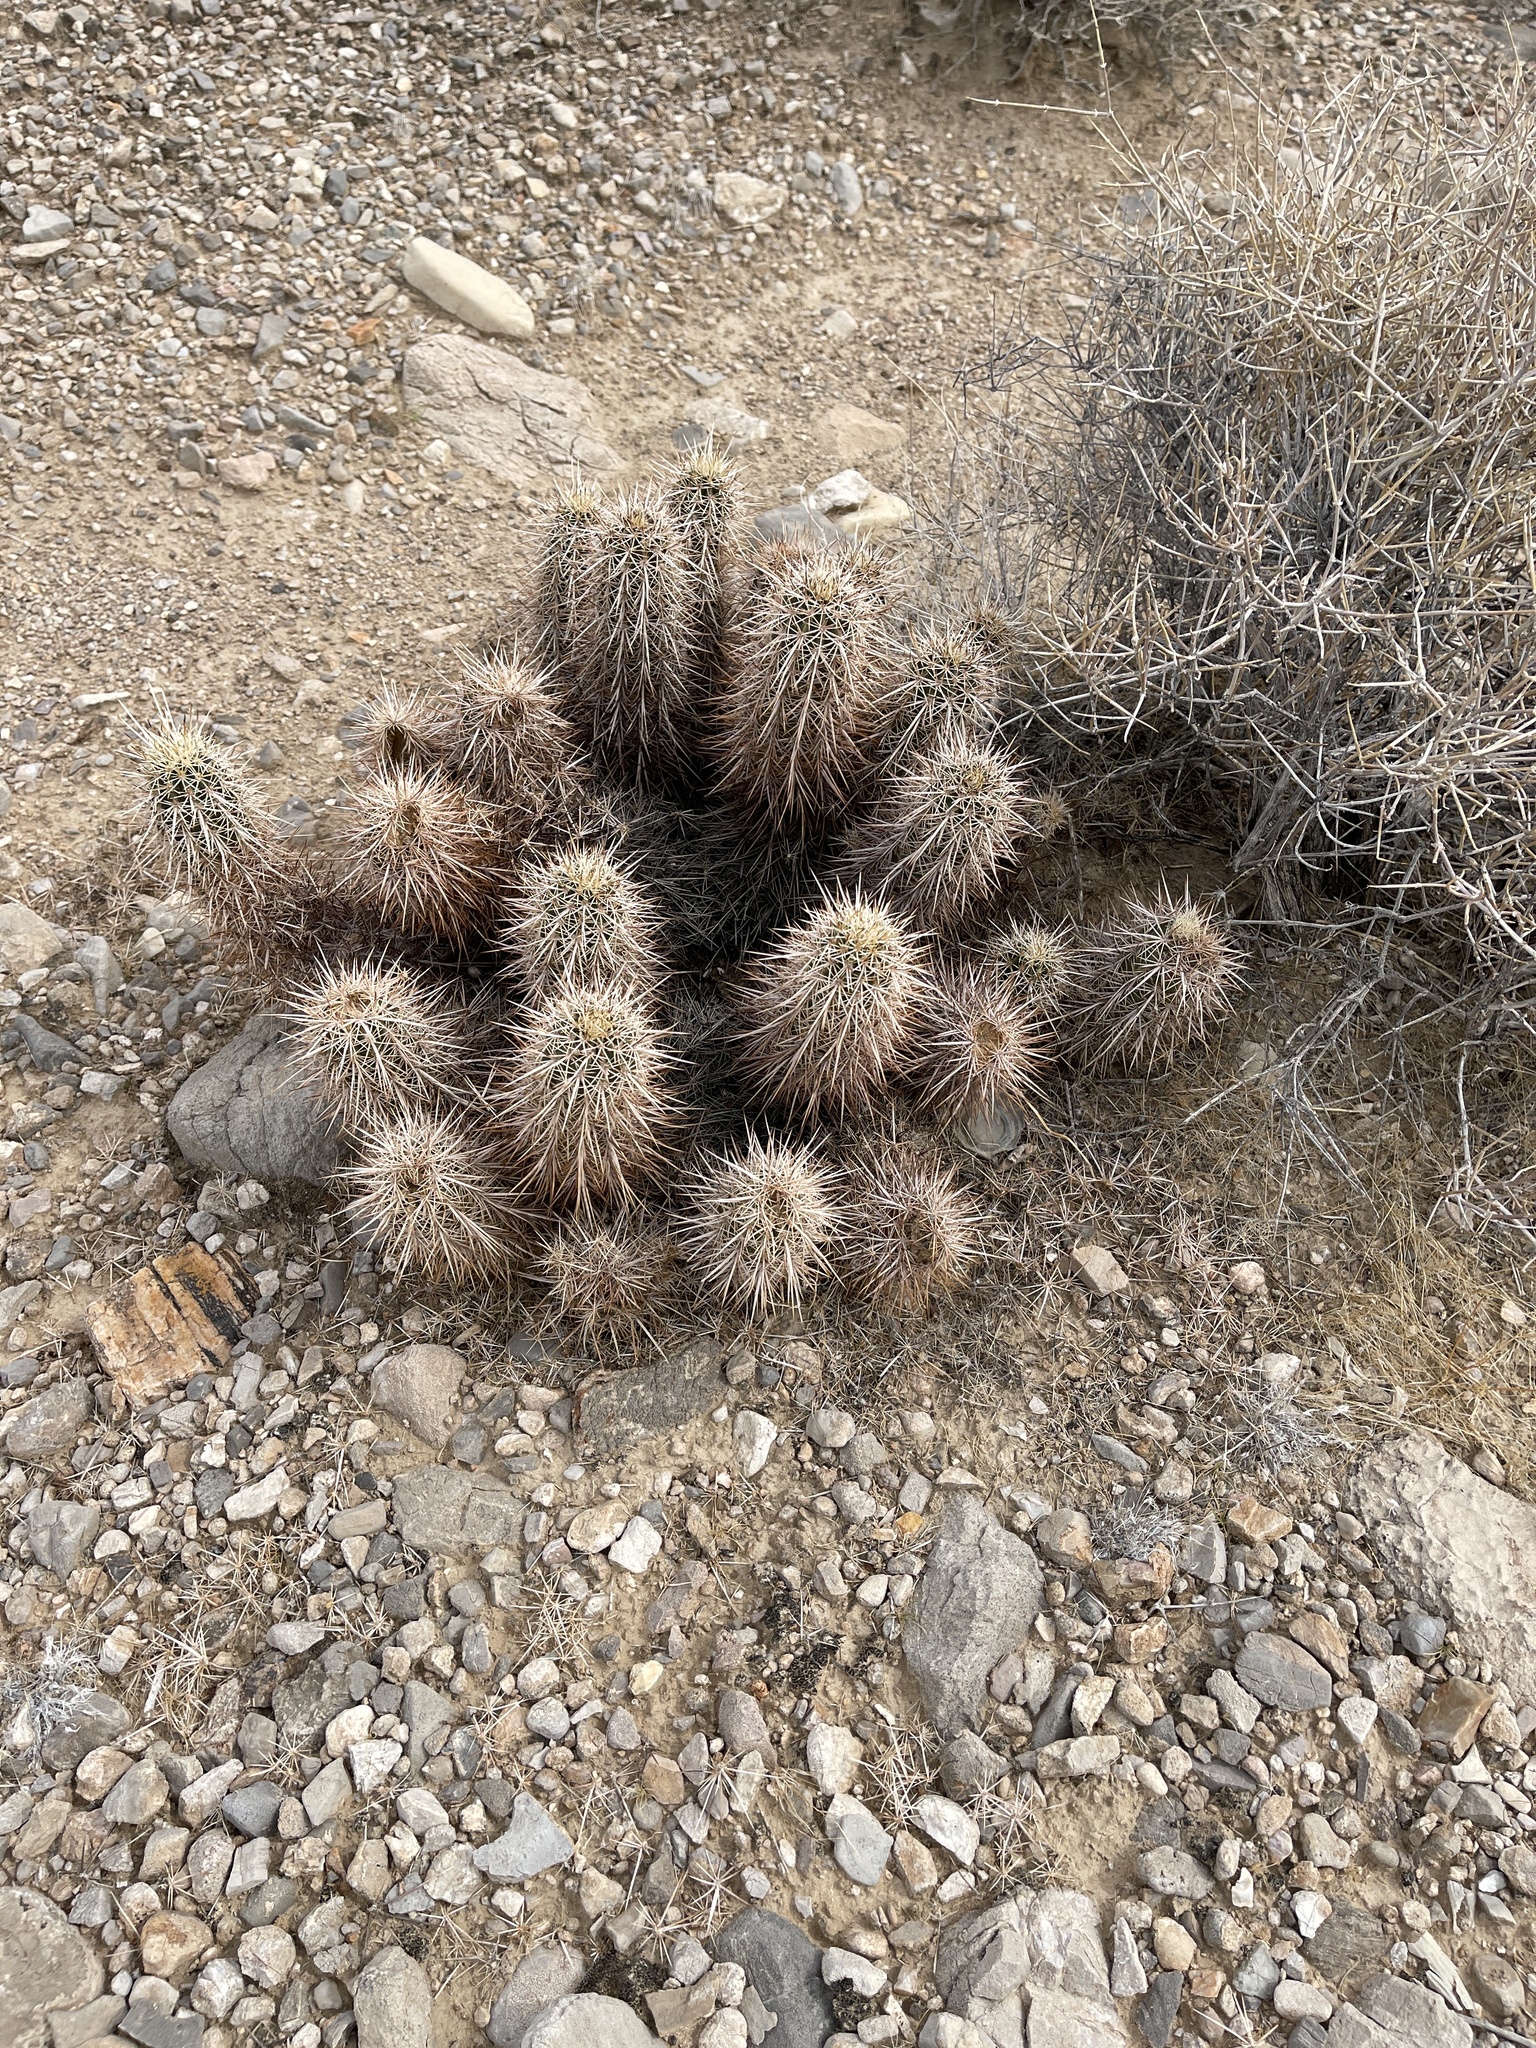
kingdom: Plantae
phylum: Tracheophyta
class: Magnoliopsida
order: Caryophyllales
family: Cactaceae
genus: Echinocereus
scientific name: Echinocereus engelmannii
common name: Engelmann's hedgehog cactus
